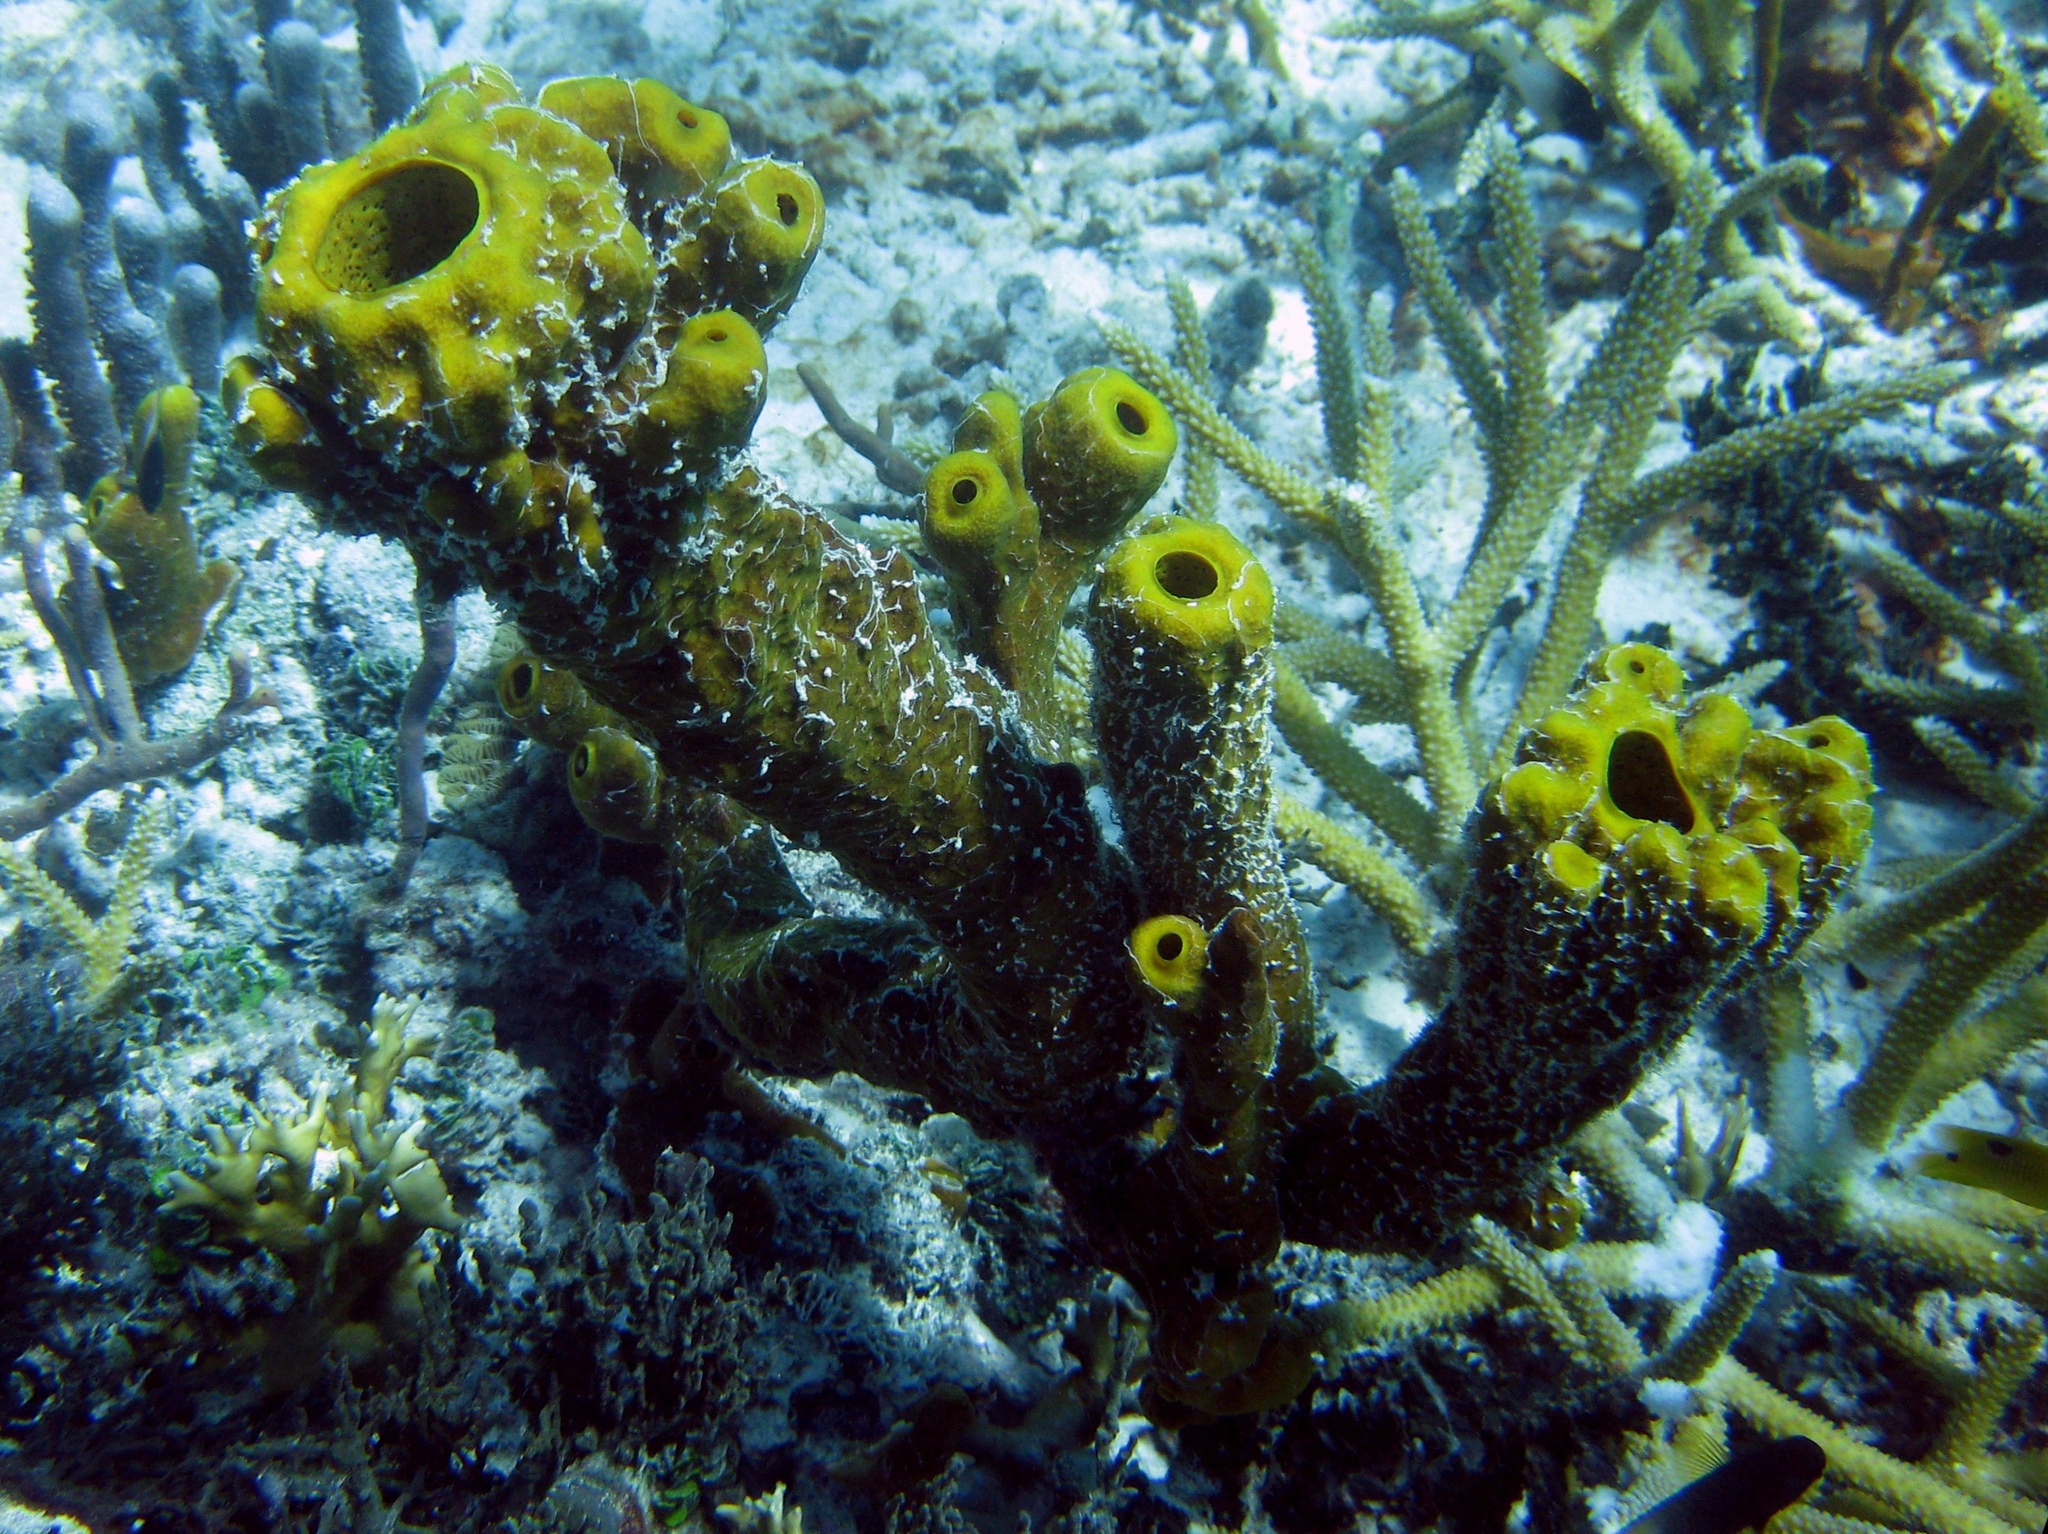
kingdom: Animalia
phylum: Porifera
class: Demospongiae
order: Verongiida
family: Aplysinidae
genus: Aplysina
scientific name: Aplysina fistularis
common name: Candle sponge
